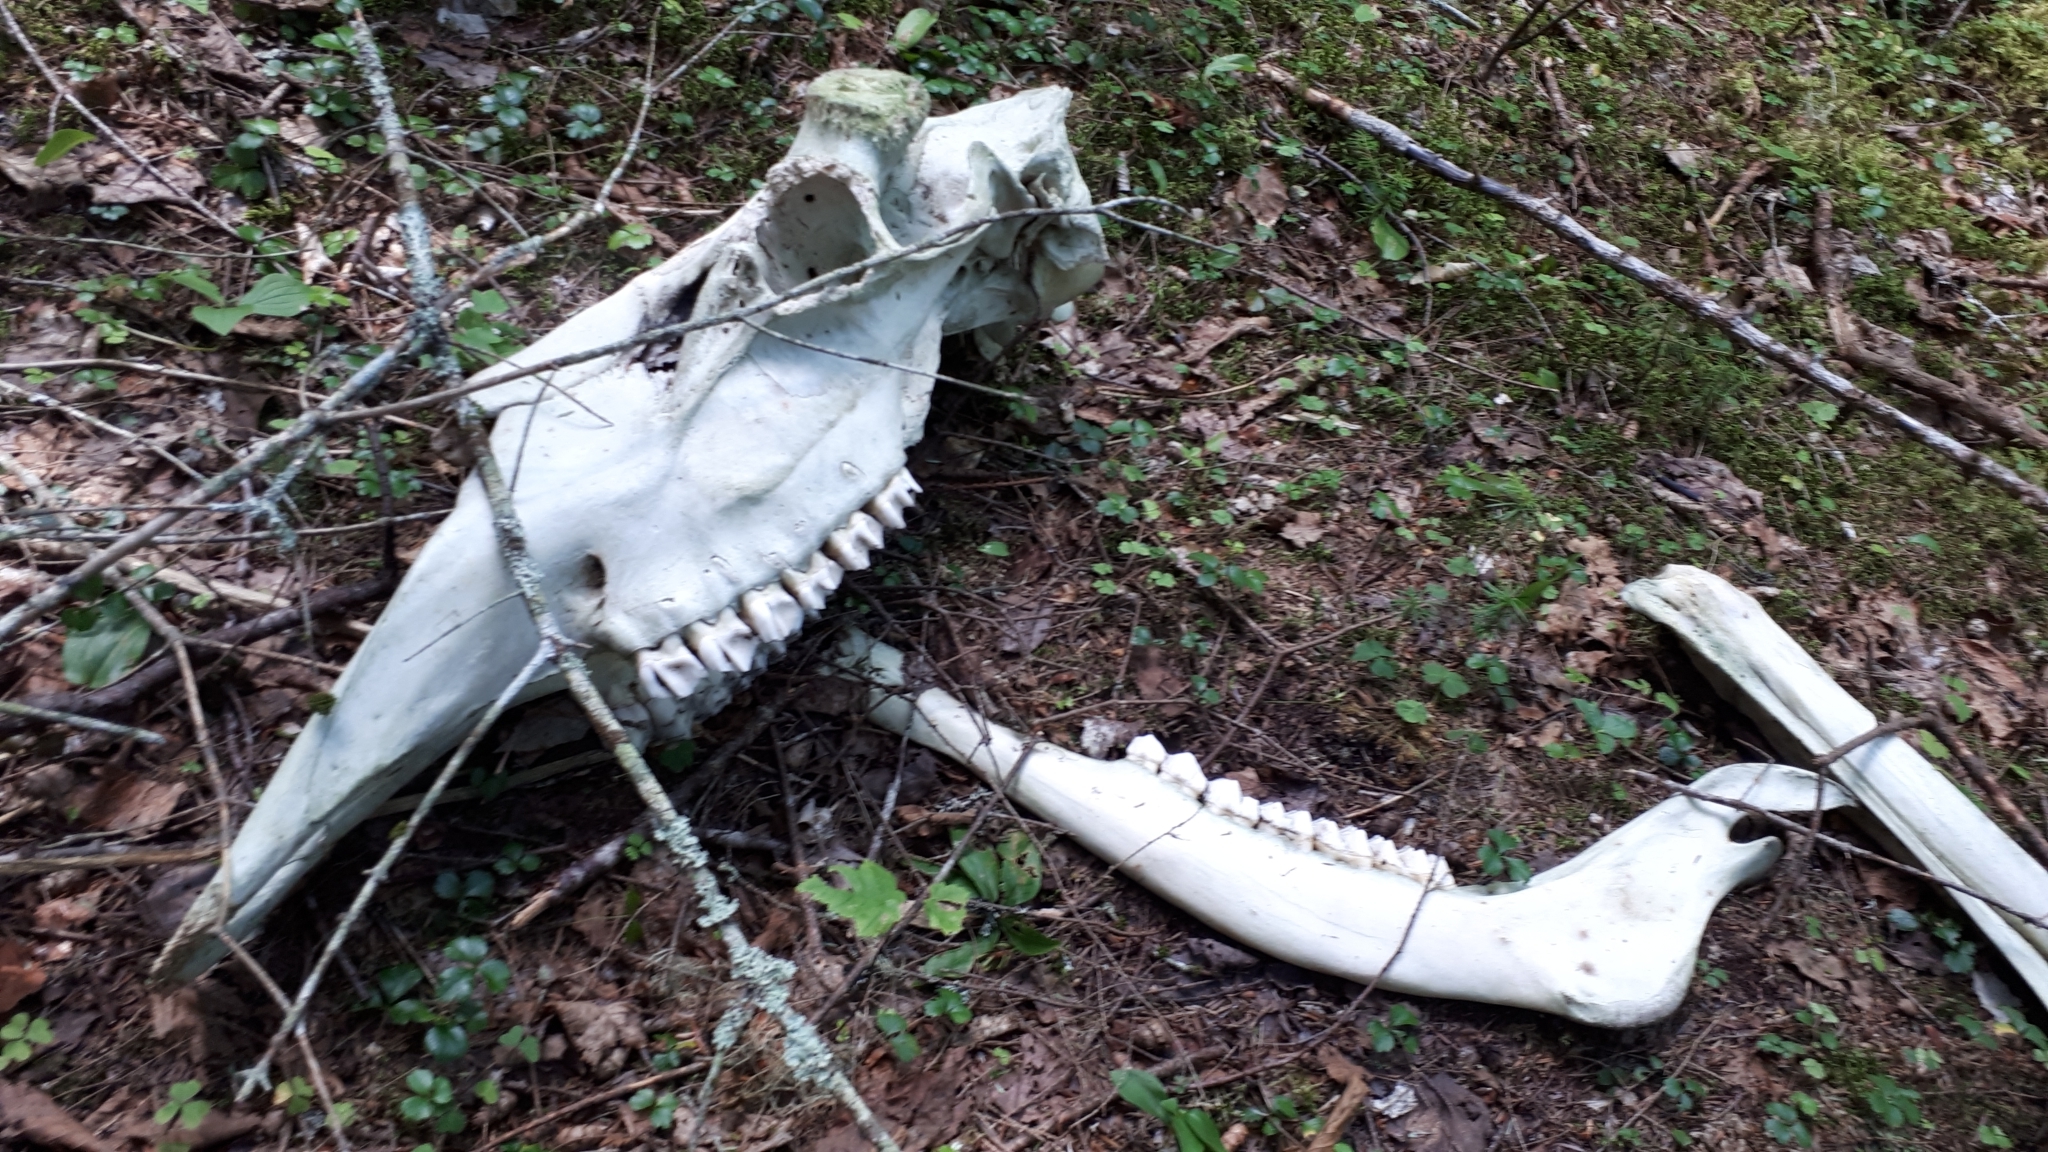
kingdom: Animalia
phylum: Chordata
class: Mammalia
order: Artiodactyla
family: Cervidae
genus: Alces
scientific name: Alces alces
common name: Moose
